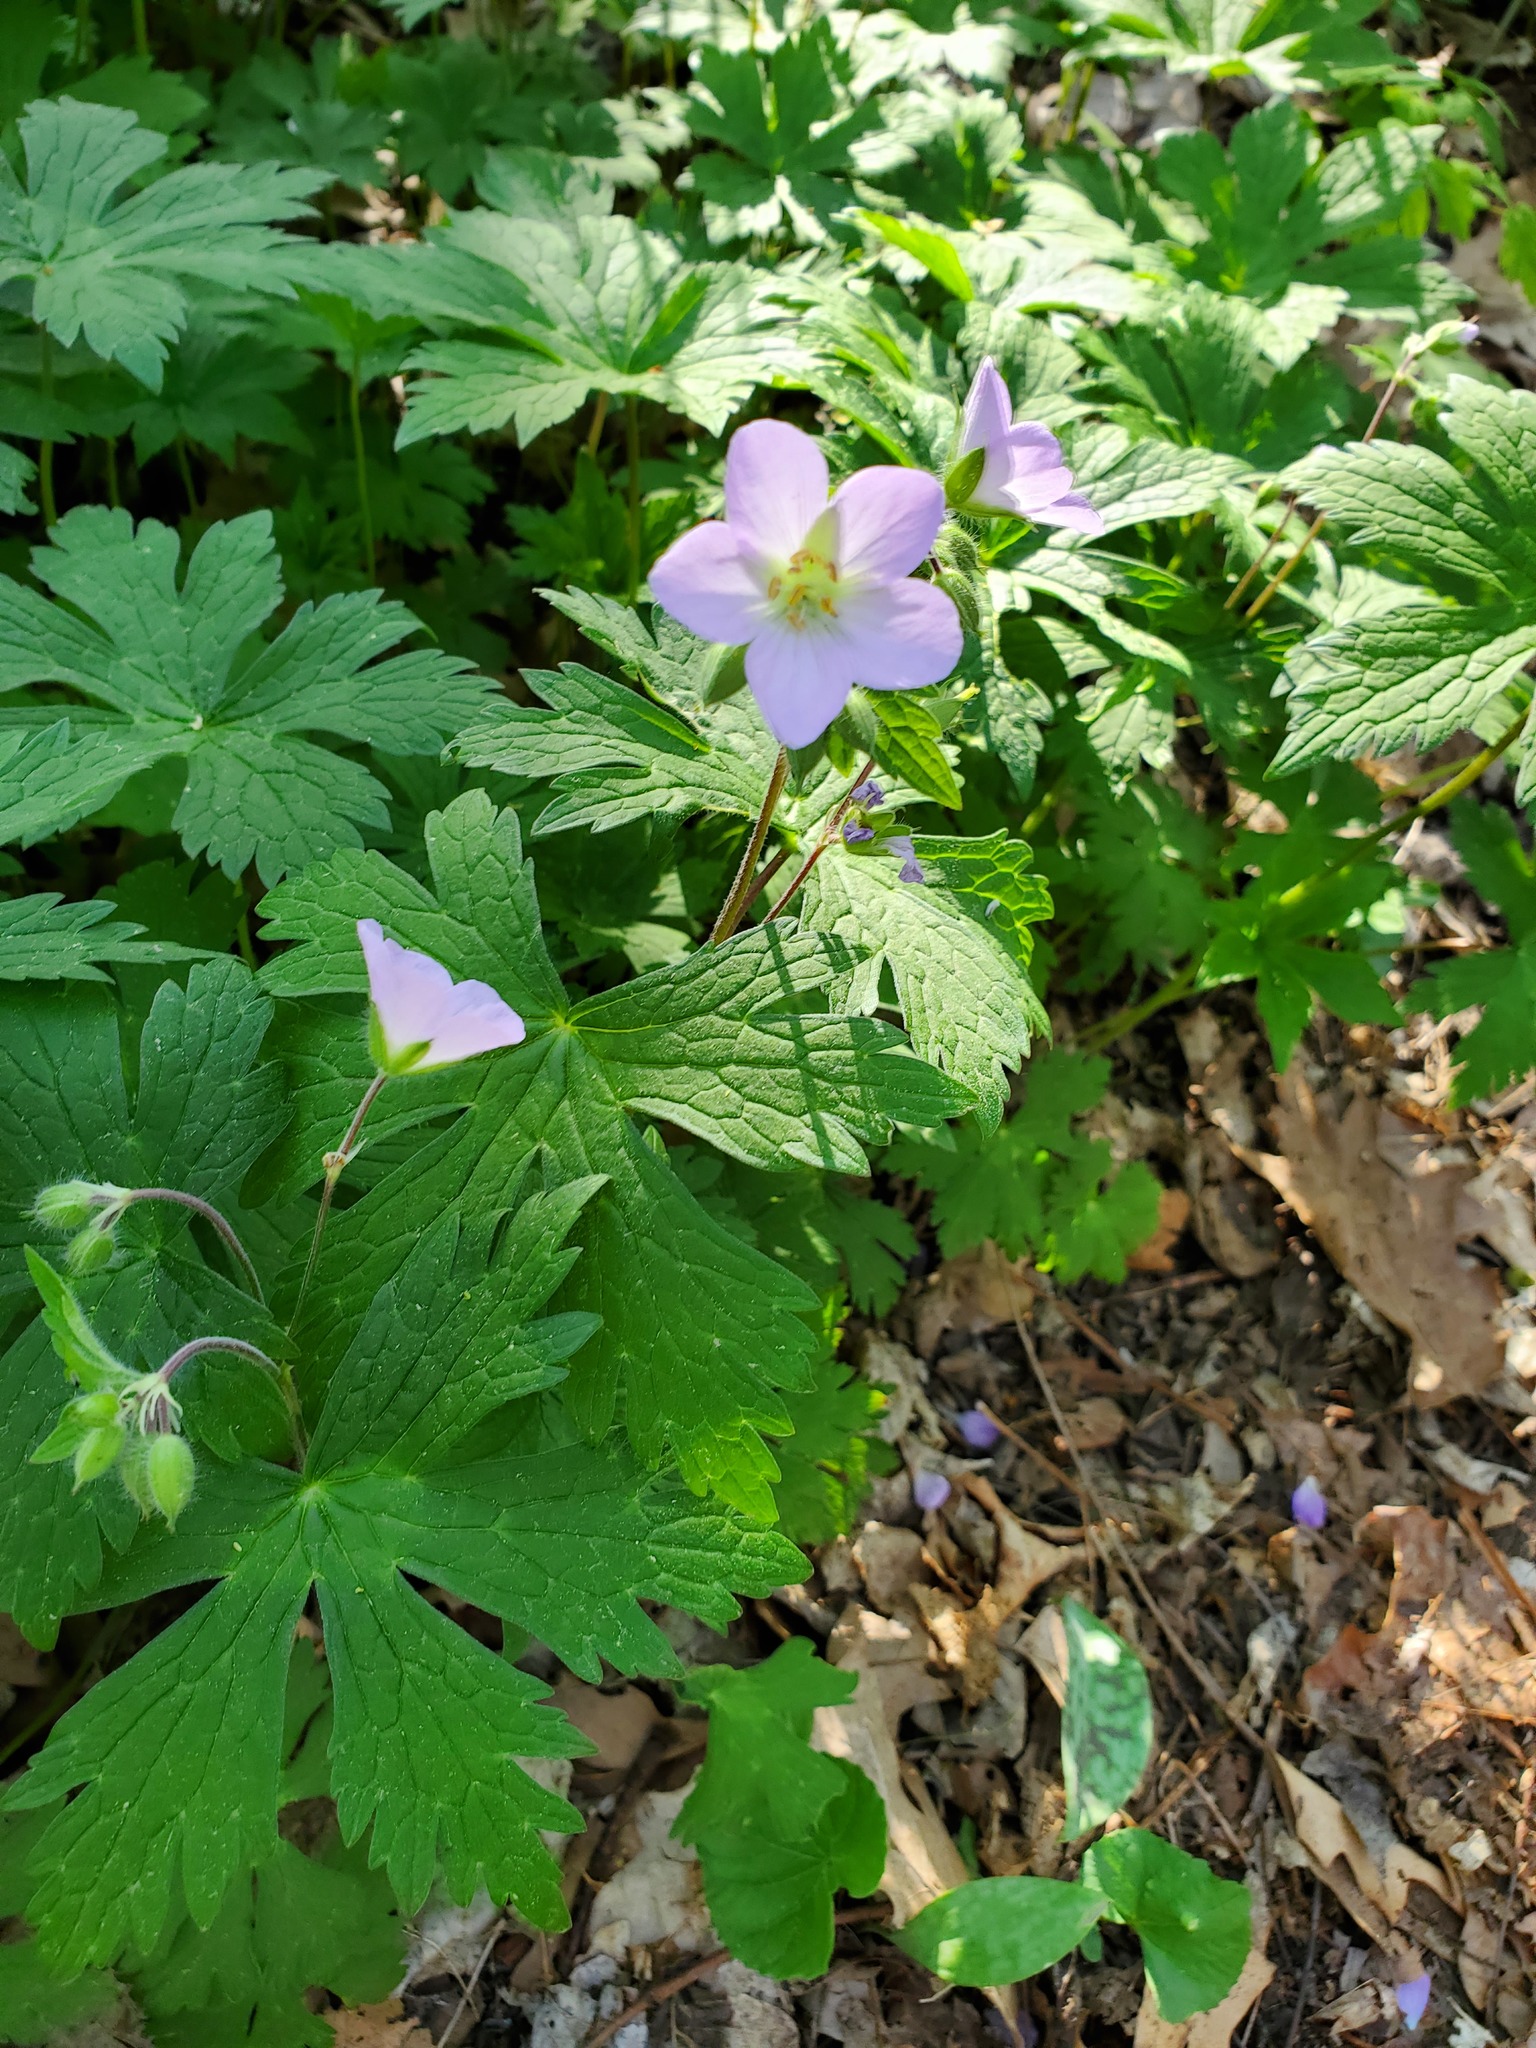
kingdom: Plantae
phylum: Tracheophyta
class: Magnoliopsida
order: Geraniales
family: Geraniaceae
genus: Geranium
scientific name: Geranium maculatum
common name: Spotted geranium
